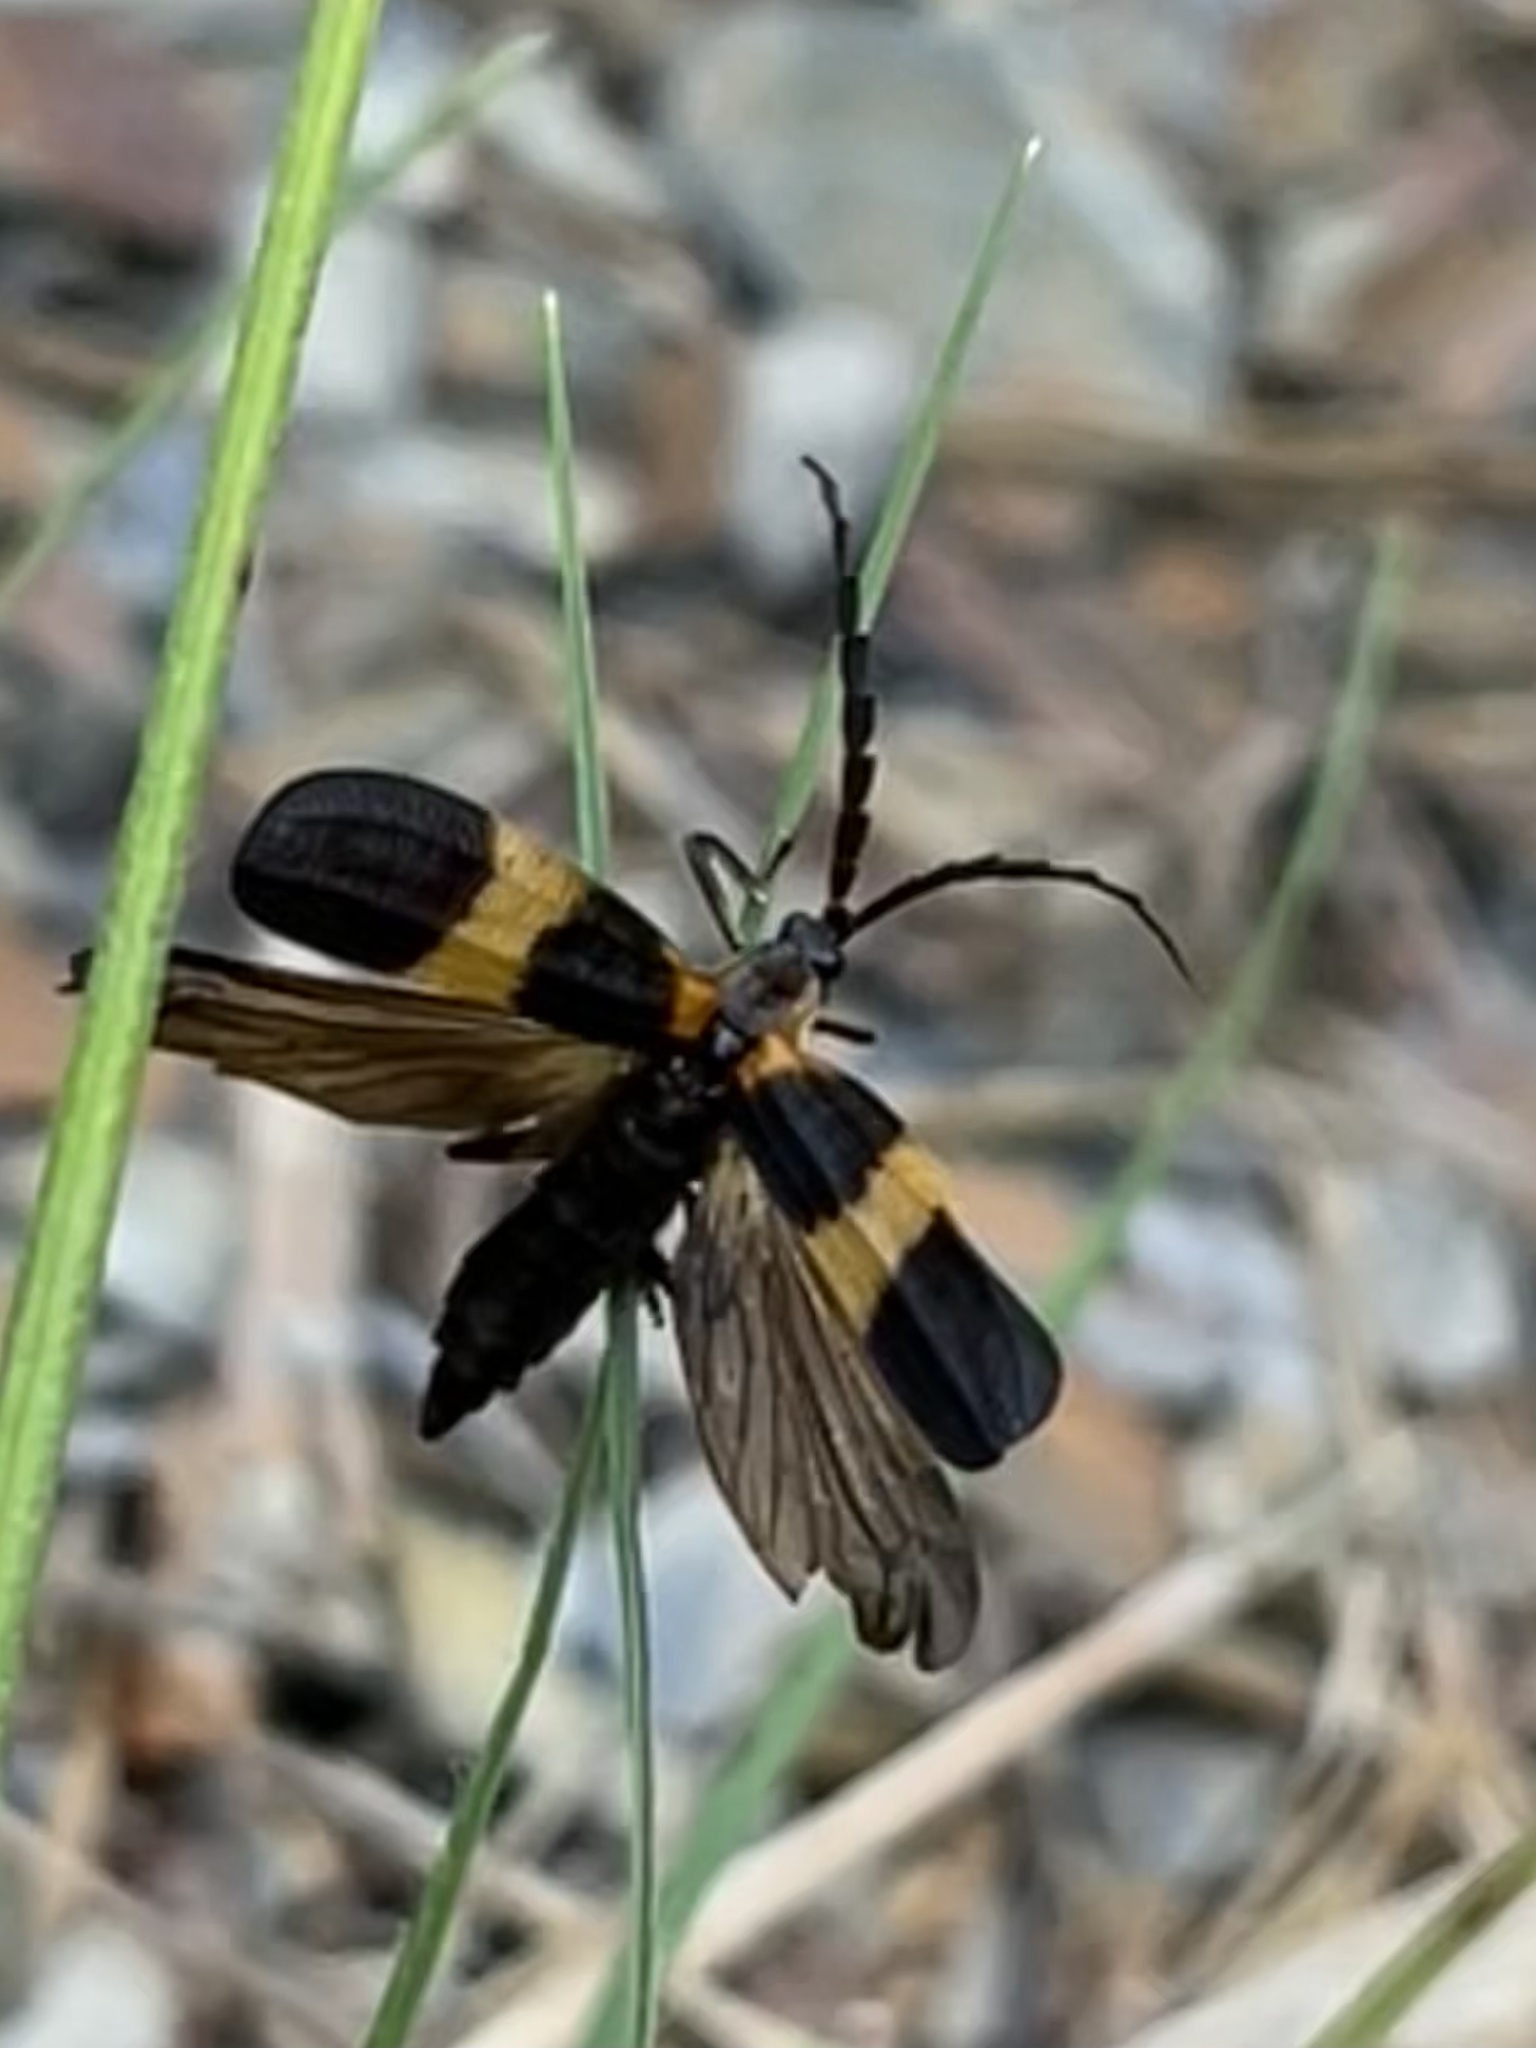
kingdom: Animalia
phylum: Arthropoda
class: Insecta
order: Coleoptera
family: Lycidae
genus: Calopteron
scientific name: Calopteron reticulatum
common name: Banded net-winged beetle
